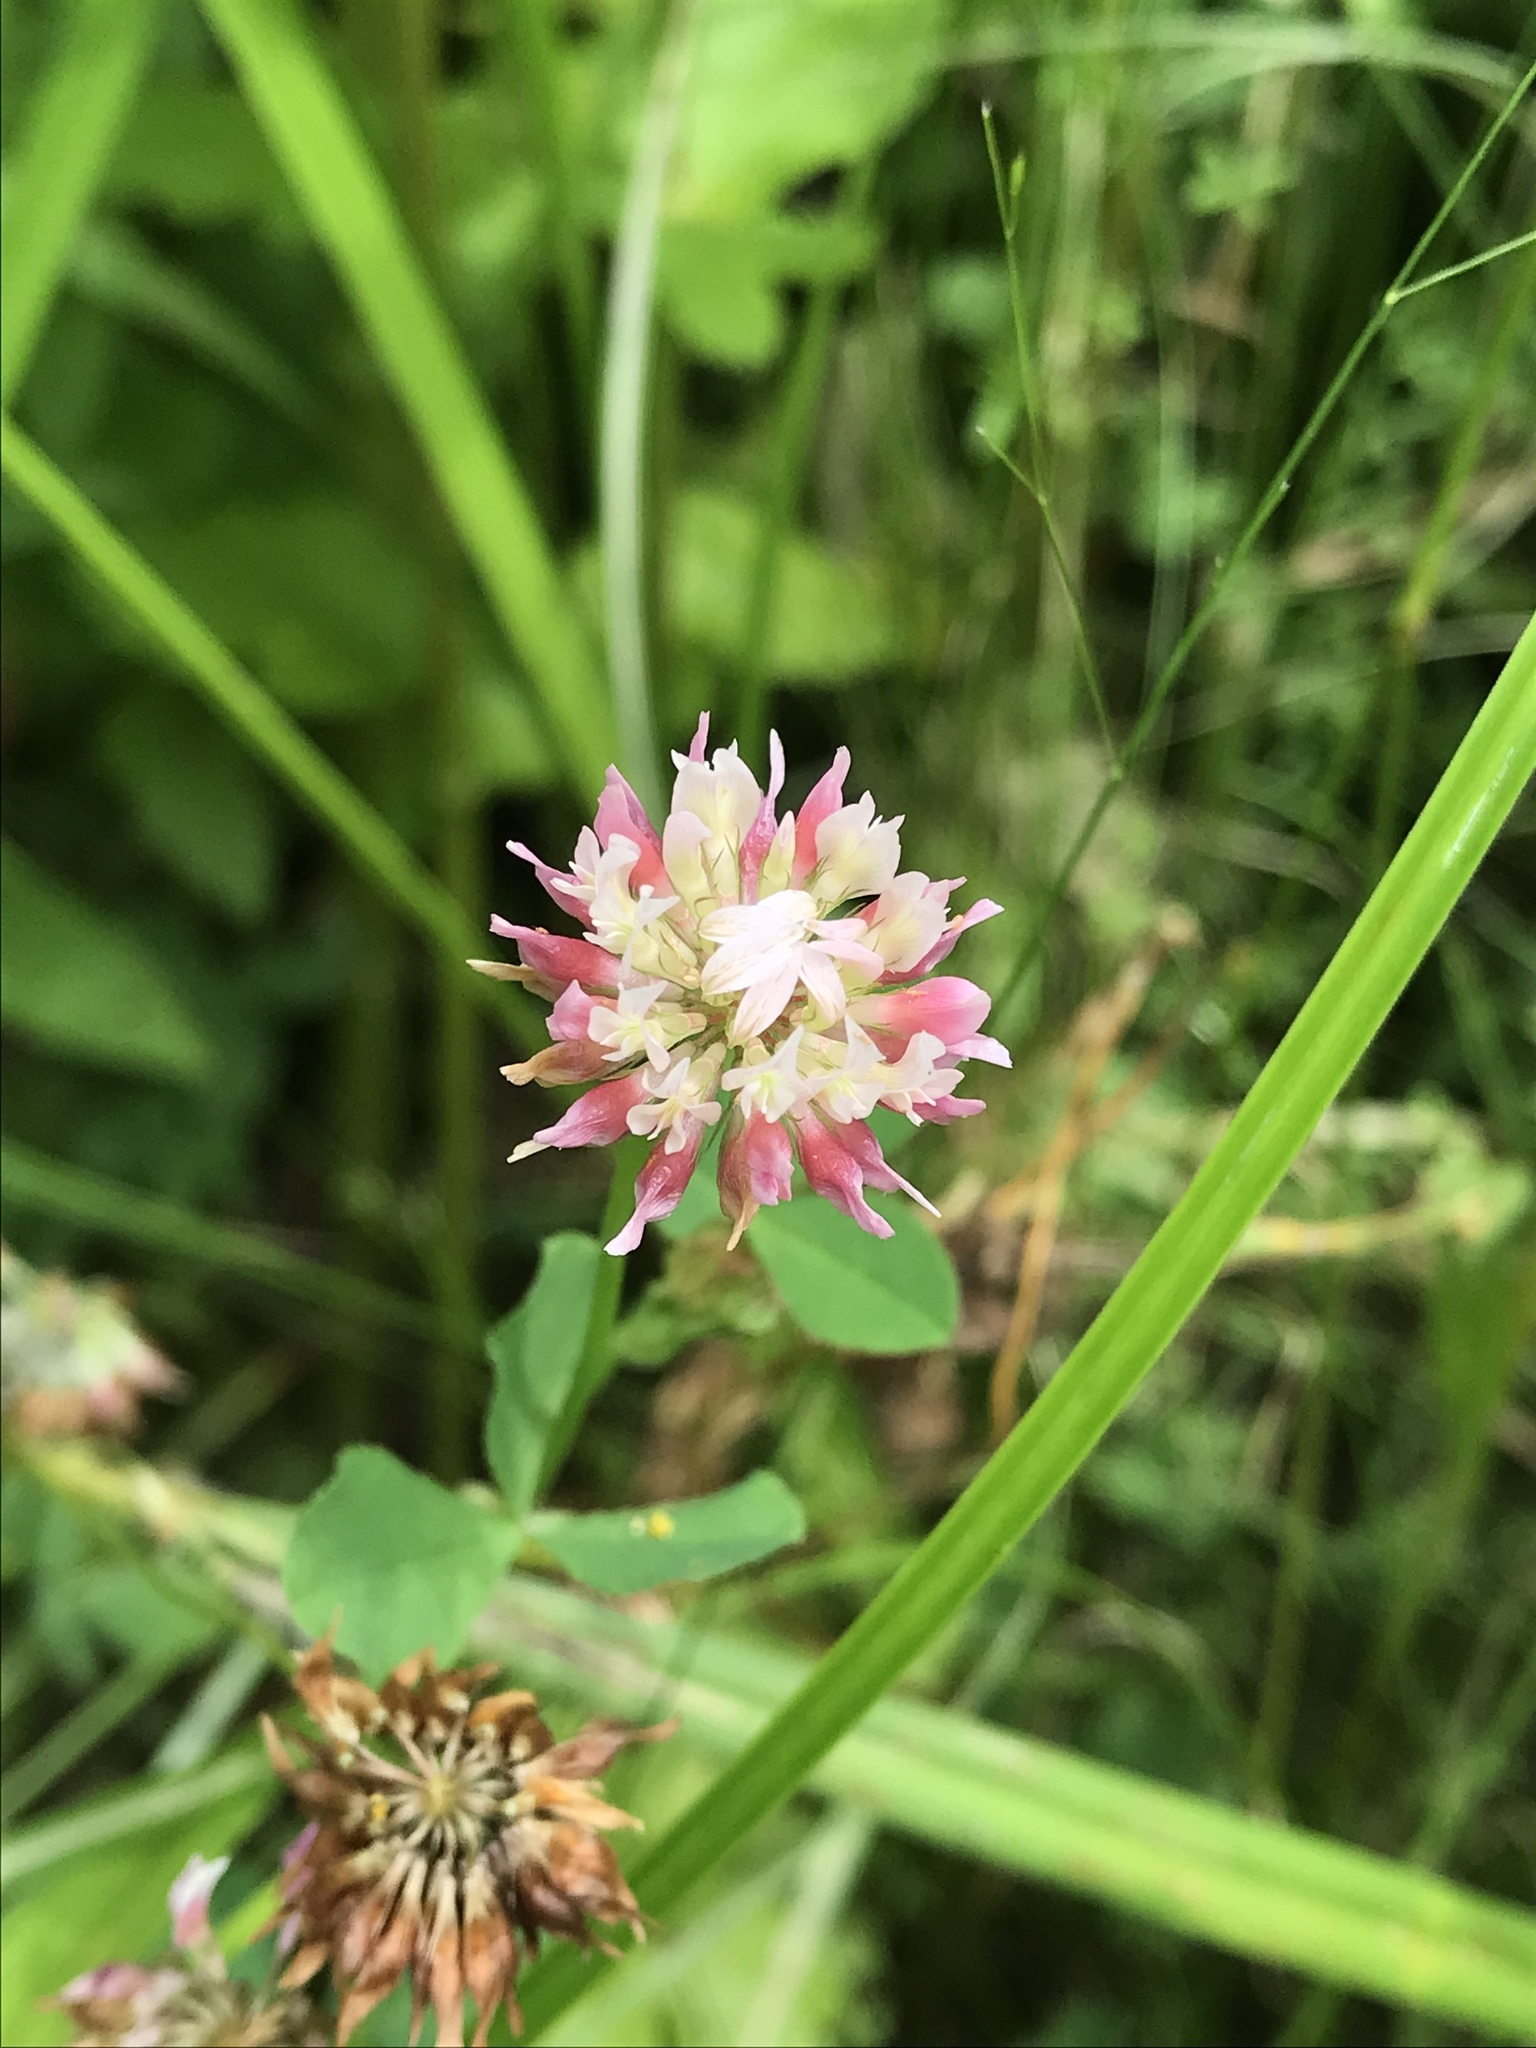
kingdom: Plantae
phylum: Tracheophyta
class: Magnoliopsida
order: Fabales
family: Fabaceae
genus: Trifolium
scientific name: Trifolium hybridum
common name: Alsike clover
